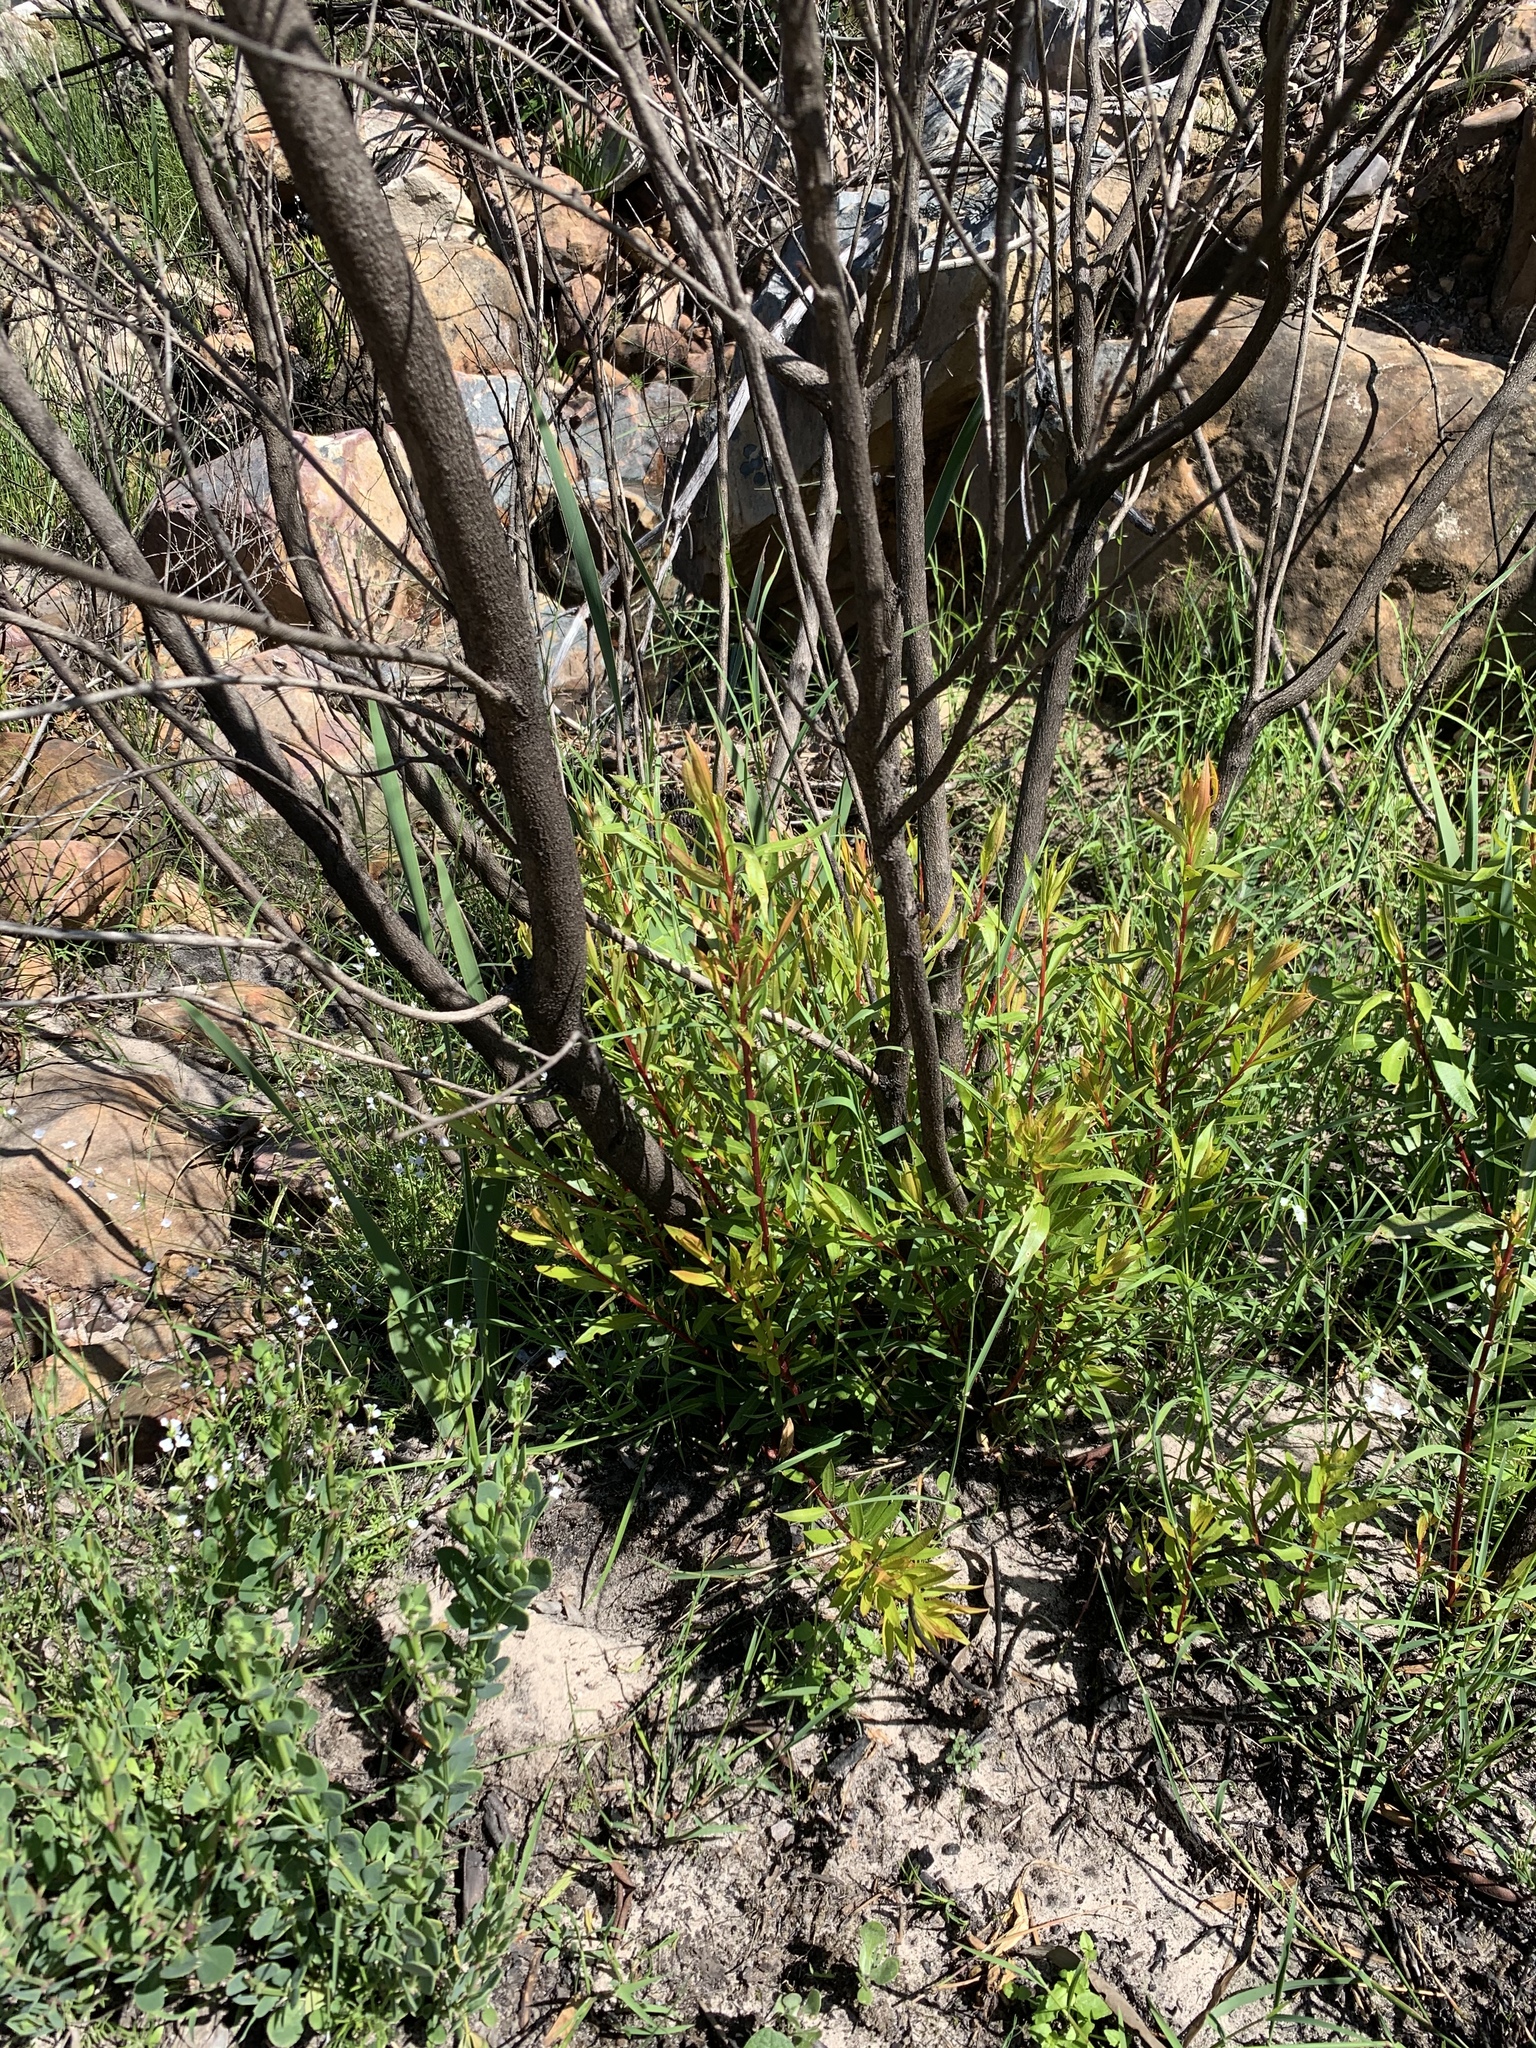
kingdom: Plantae
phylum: Tracheophyta
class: Magnoliopsida
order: Myrtales
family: Myrtaceae
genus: Callistemon
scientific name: Callistemon lanceolatus
